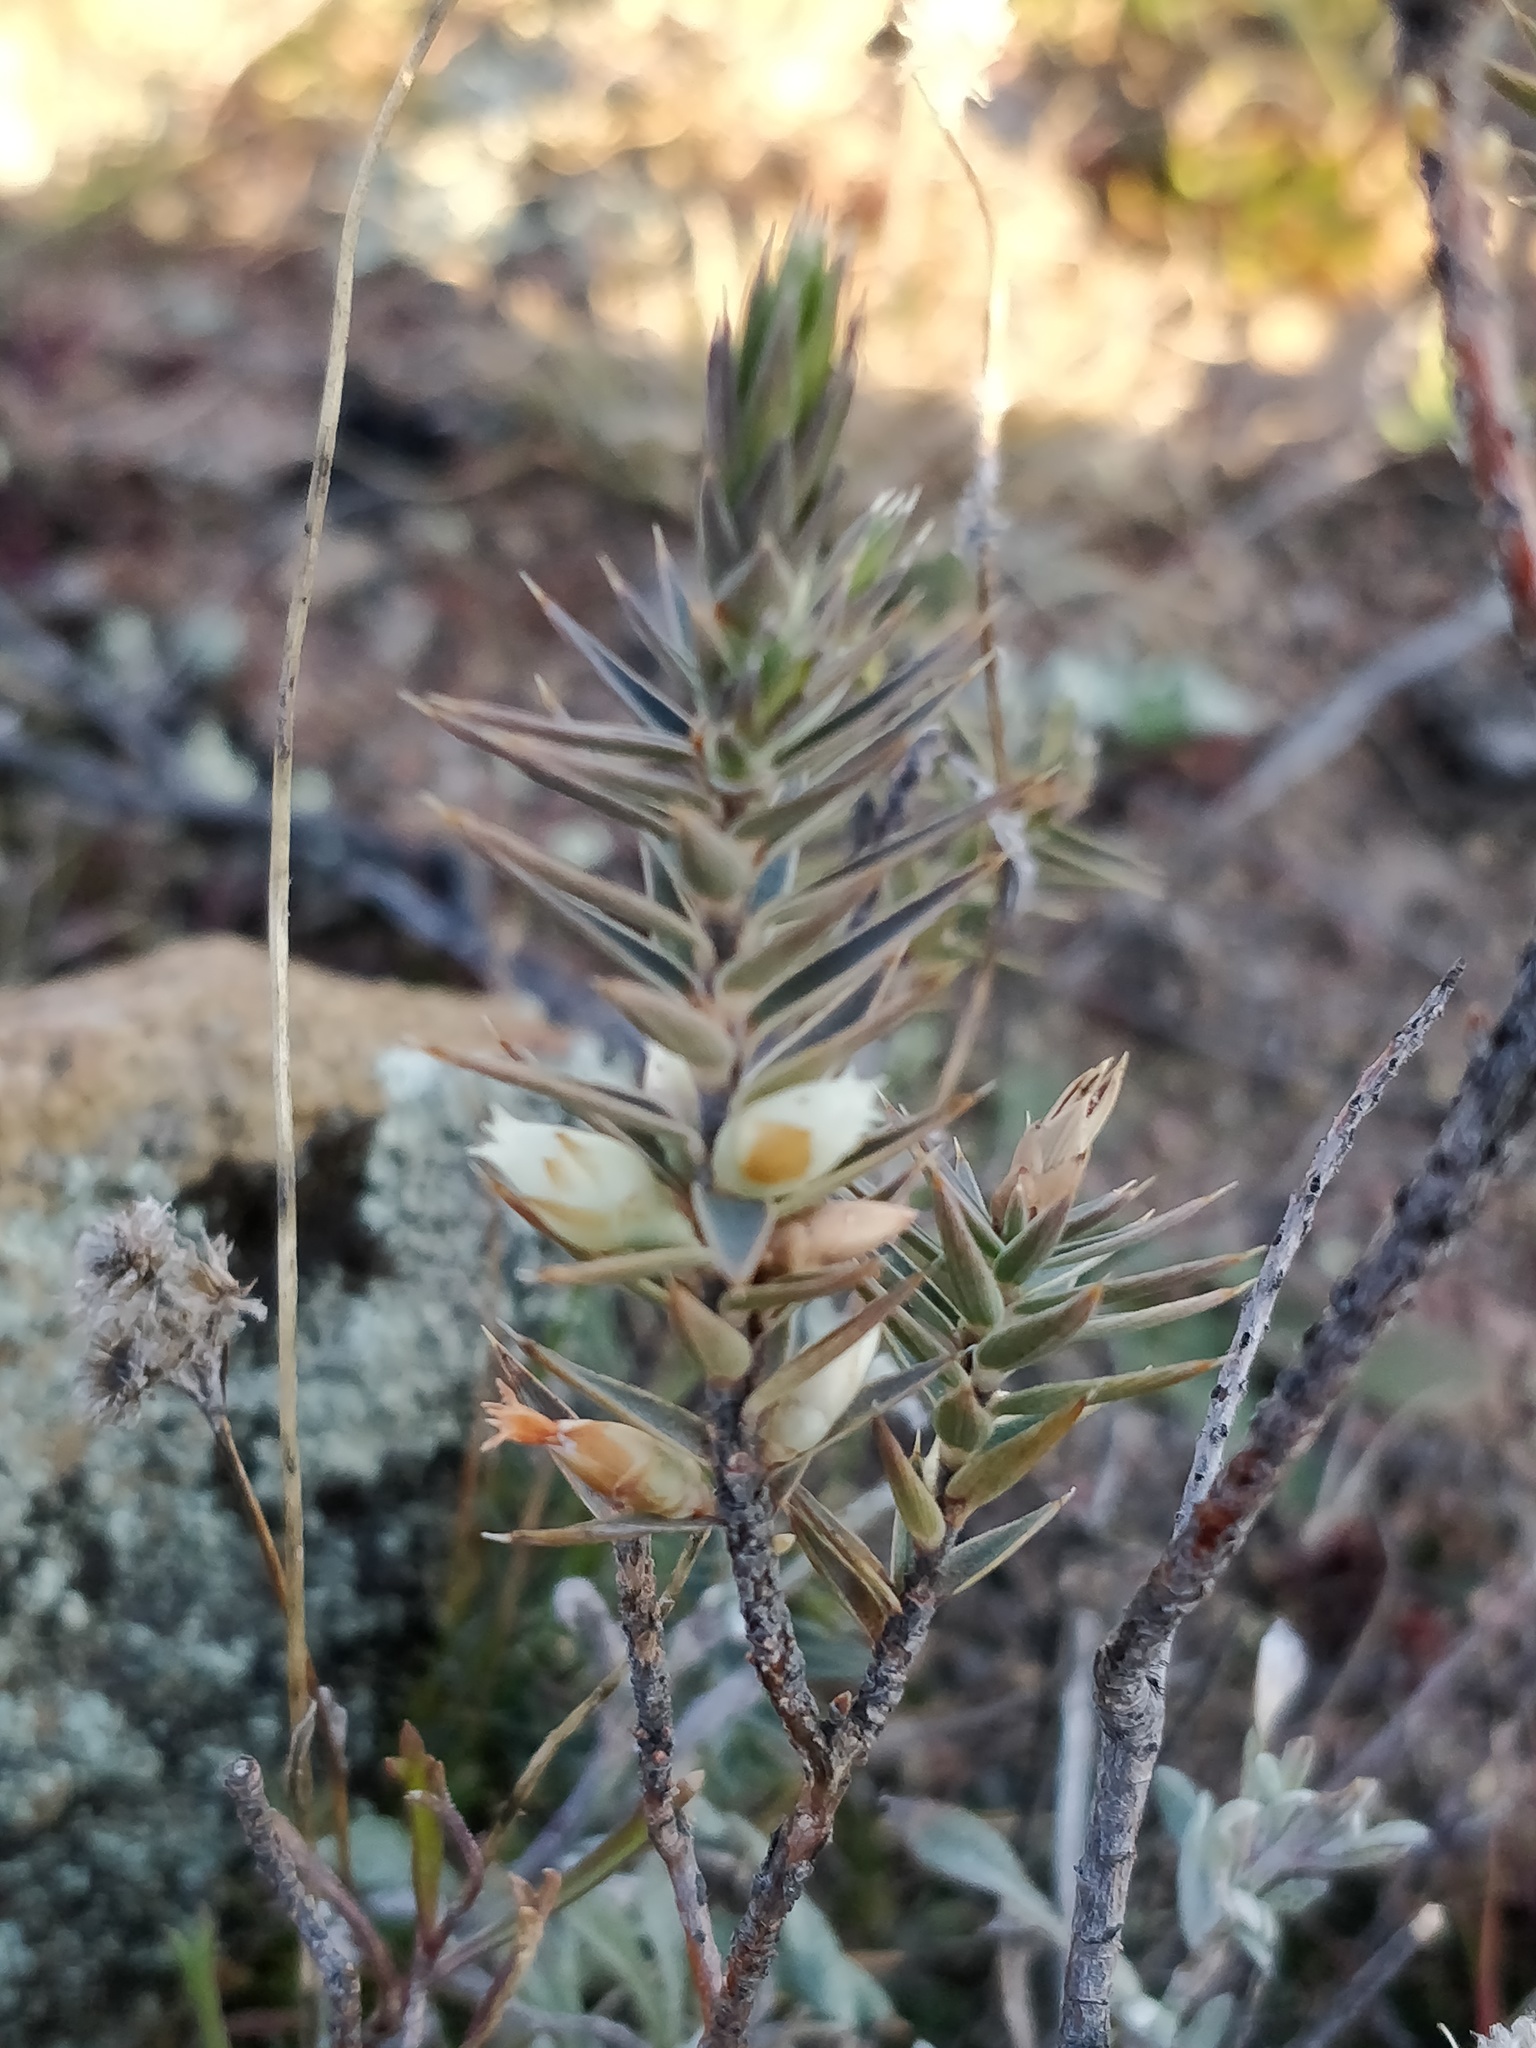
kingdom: Plantae
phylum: Tracheophyta
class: Magnoliopsida
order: Ericales
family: Ericaceae
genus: Melichrus
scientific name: Melichrus urceolatus
